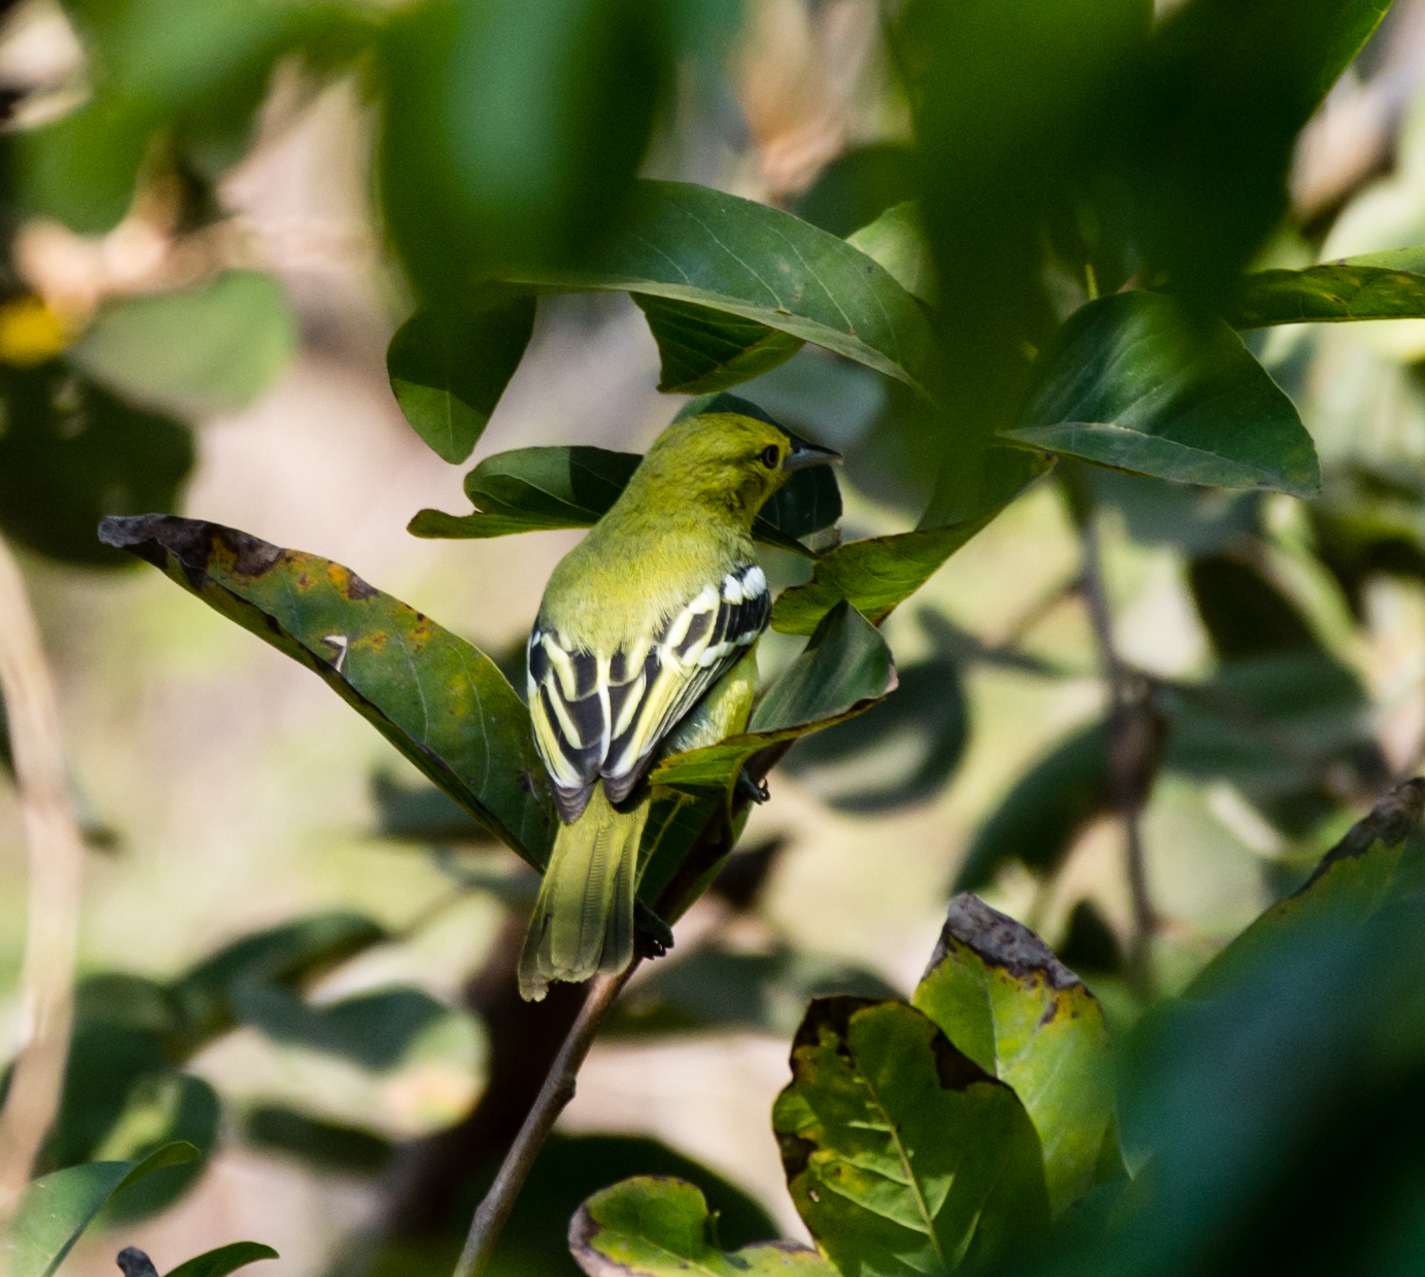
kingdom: Animalia
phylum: Chordata
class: Aves
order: Passeriformes
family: Aegithinidae
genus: Aegithina
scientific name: Aegithina tiphia
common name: Common iora
